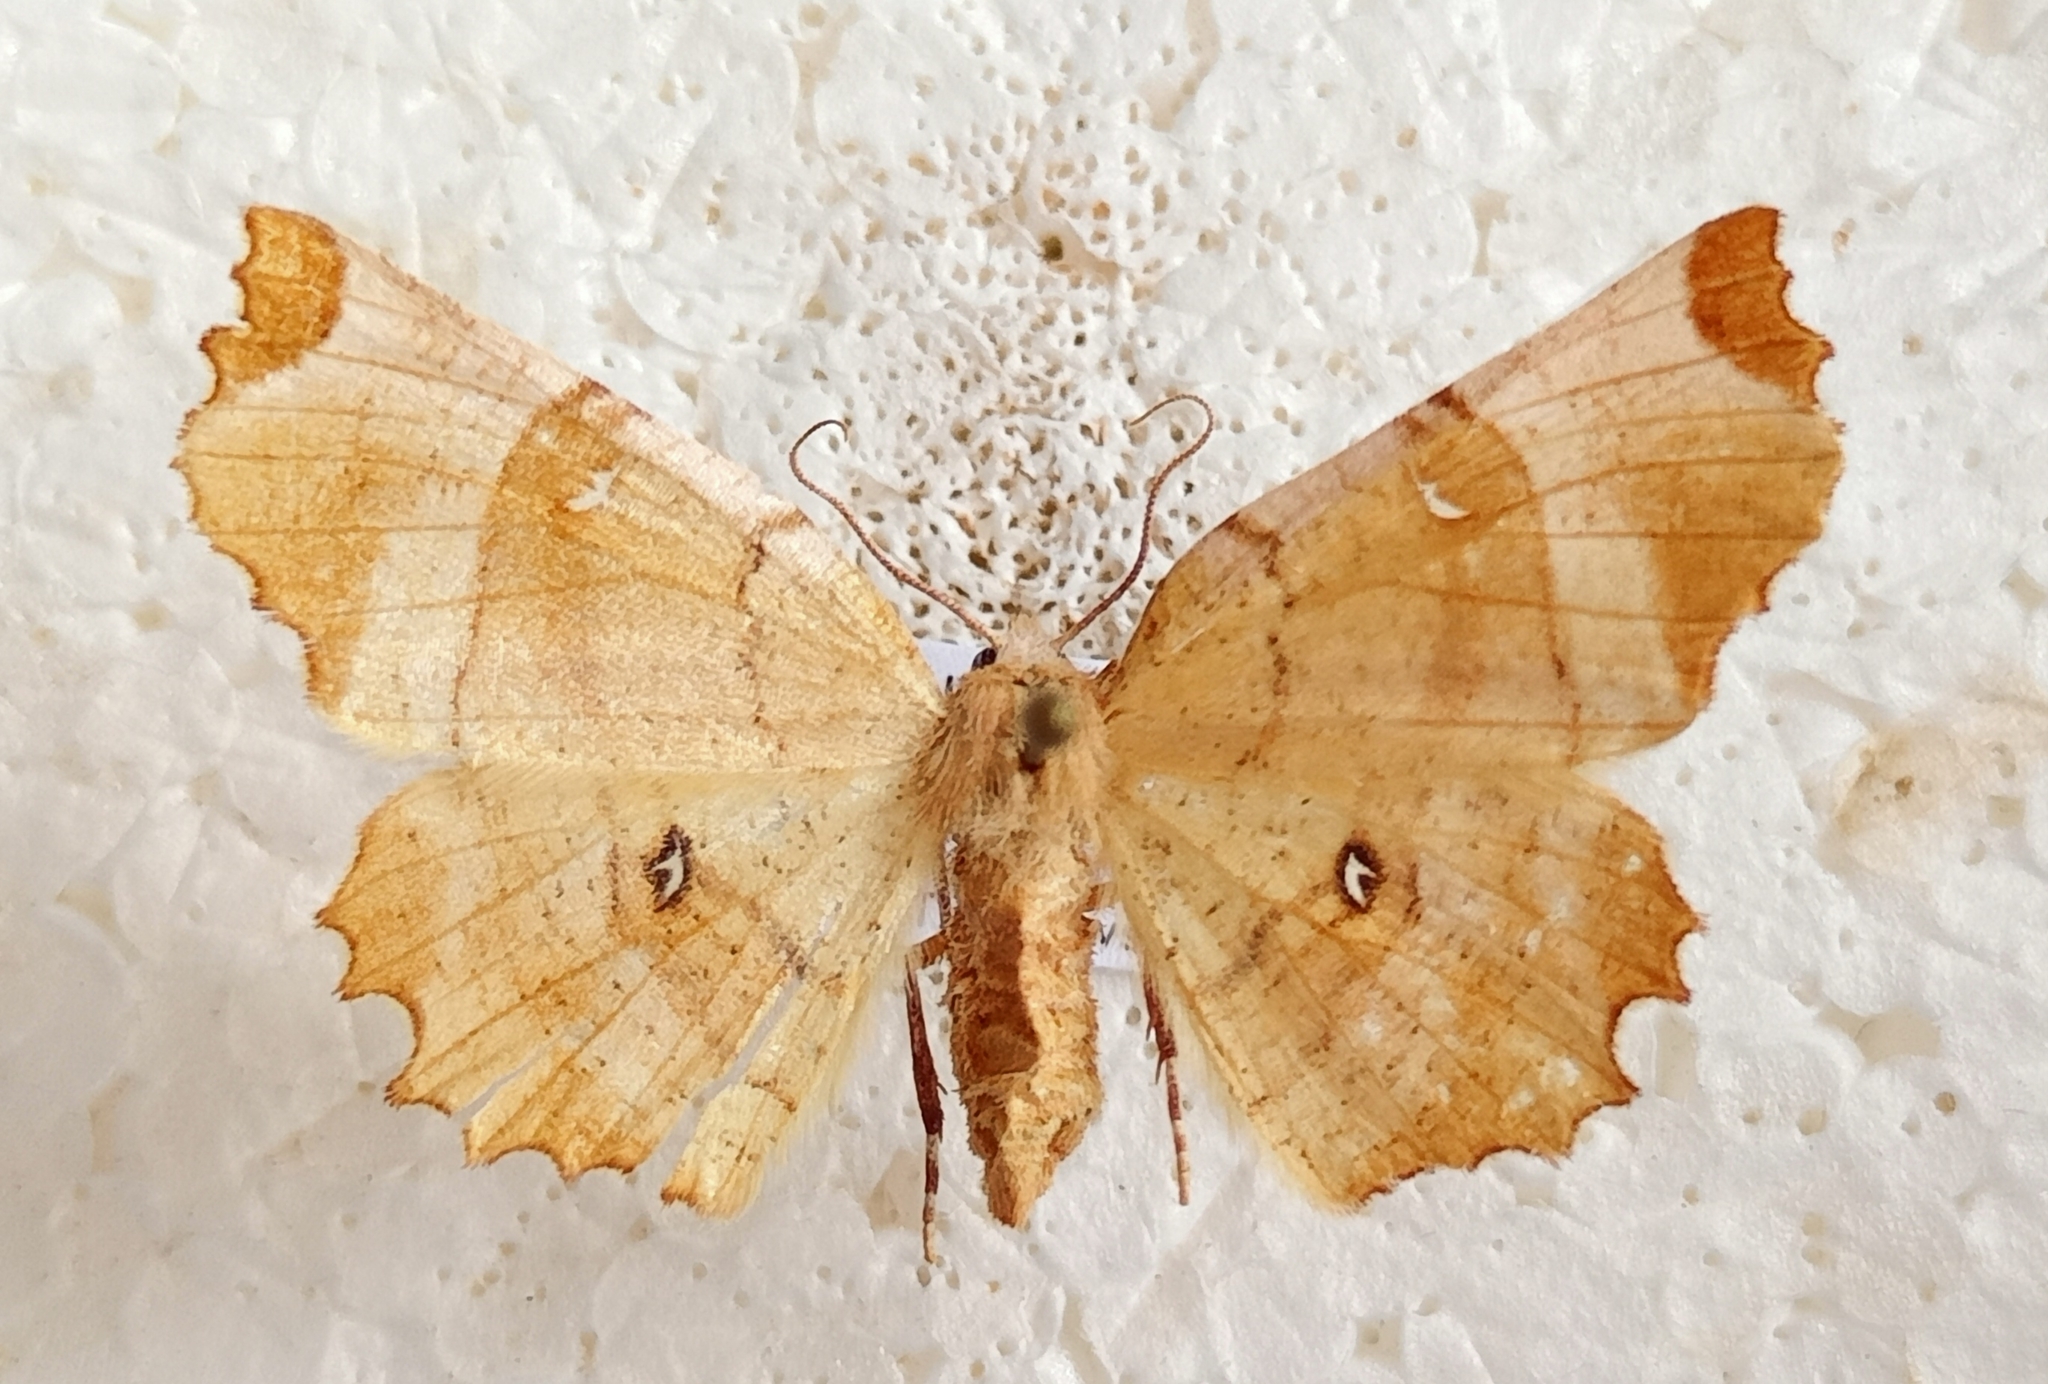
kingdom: Animalia
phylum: Arthropoda
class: Insecta
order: Lepidoptera
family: Geometridae
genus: Selenia
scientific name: Selenia lunularia
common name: Lunar thorn
